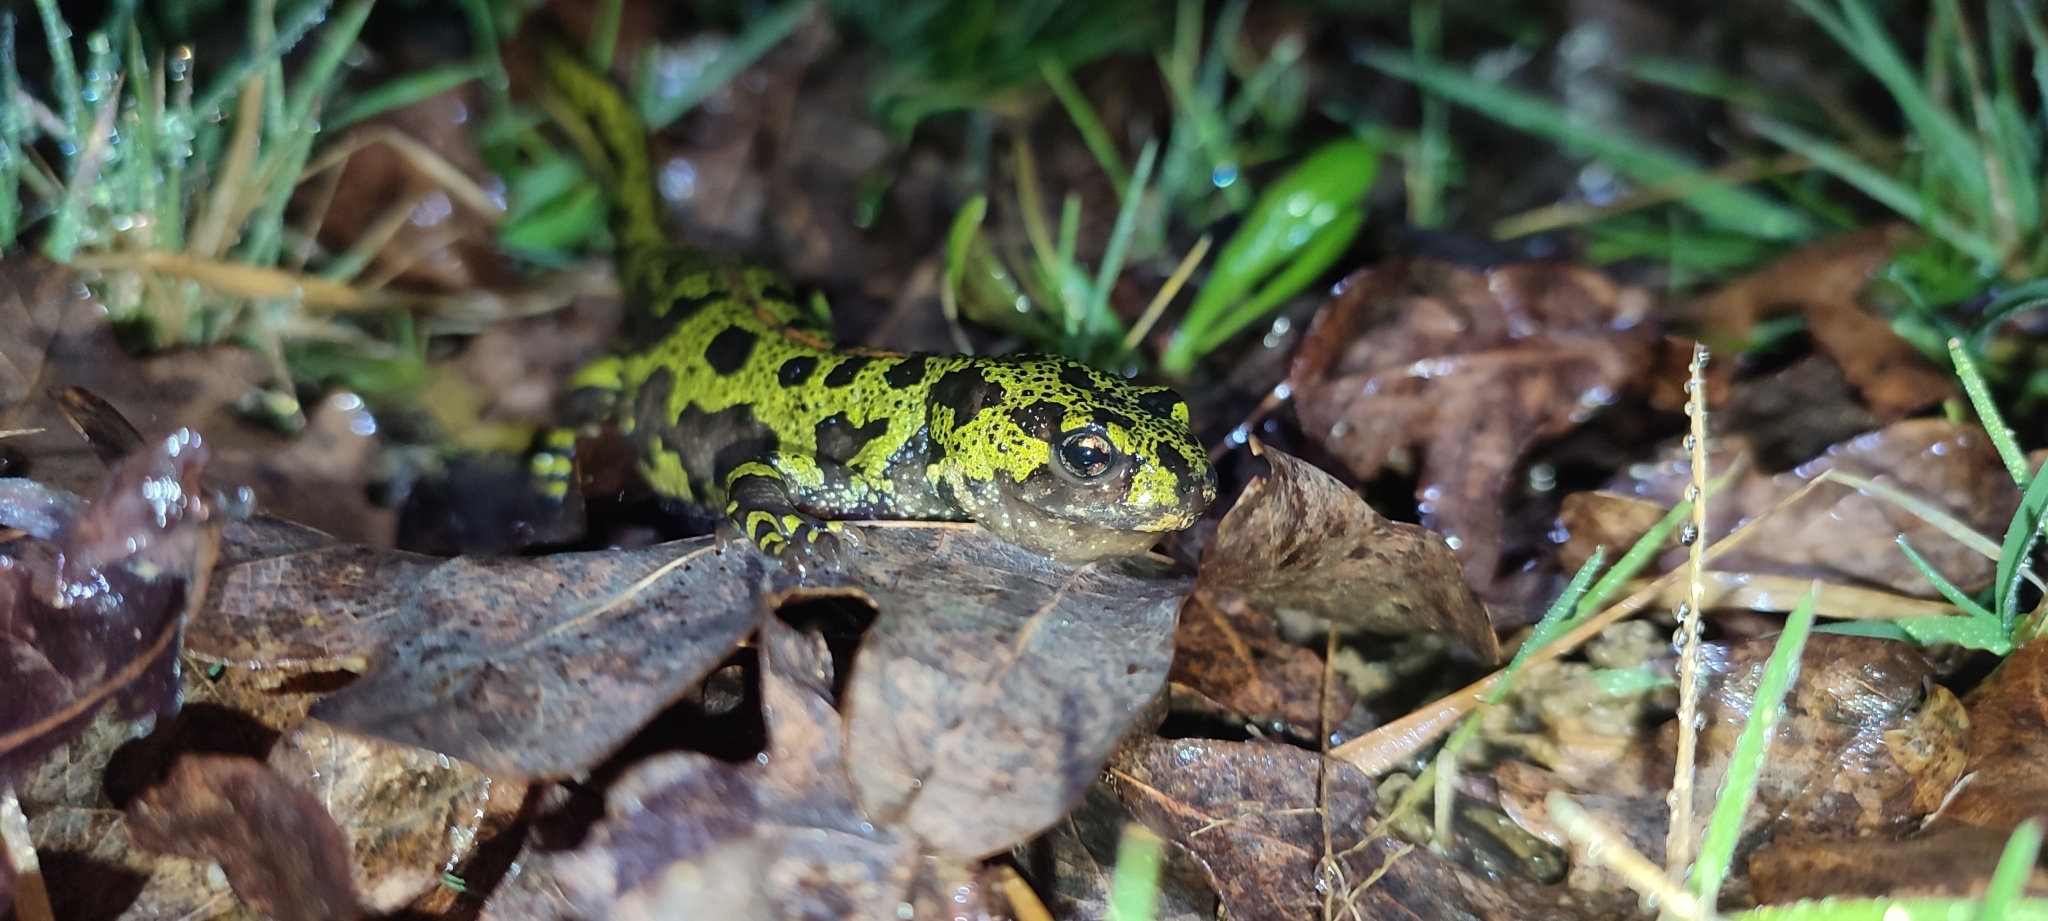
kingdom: Animalia
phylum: Chordata
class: Amphibia
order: Caudata
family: Salamandridae
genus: Triturus
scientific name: Triturus marmoratus
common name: Marbled newt
